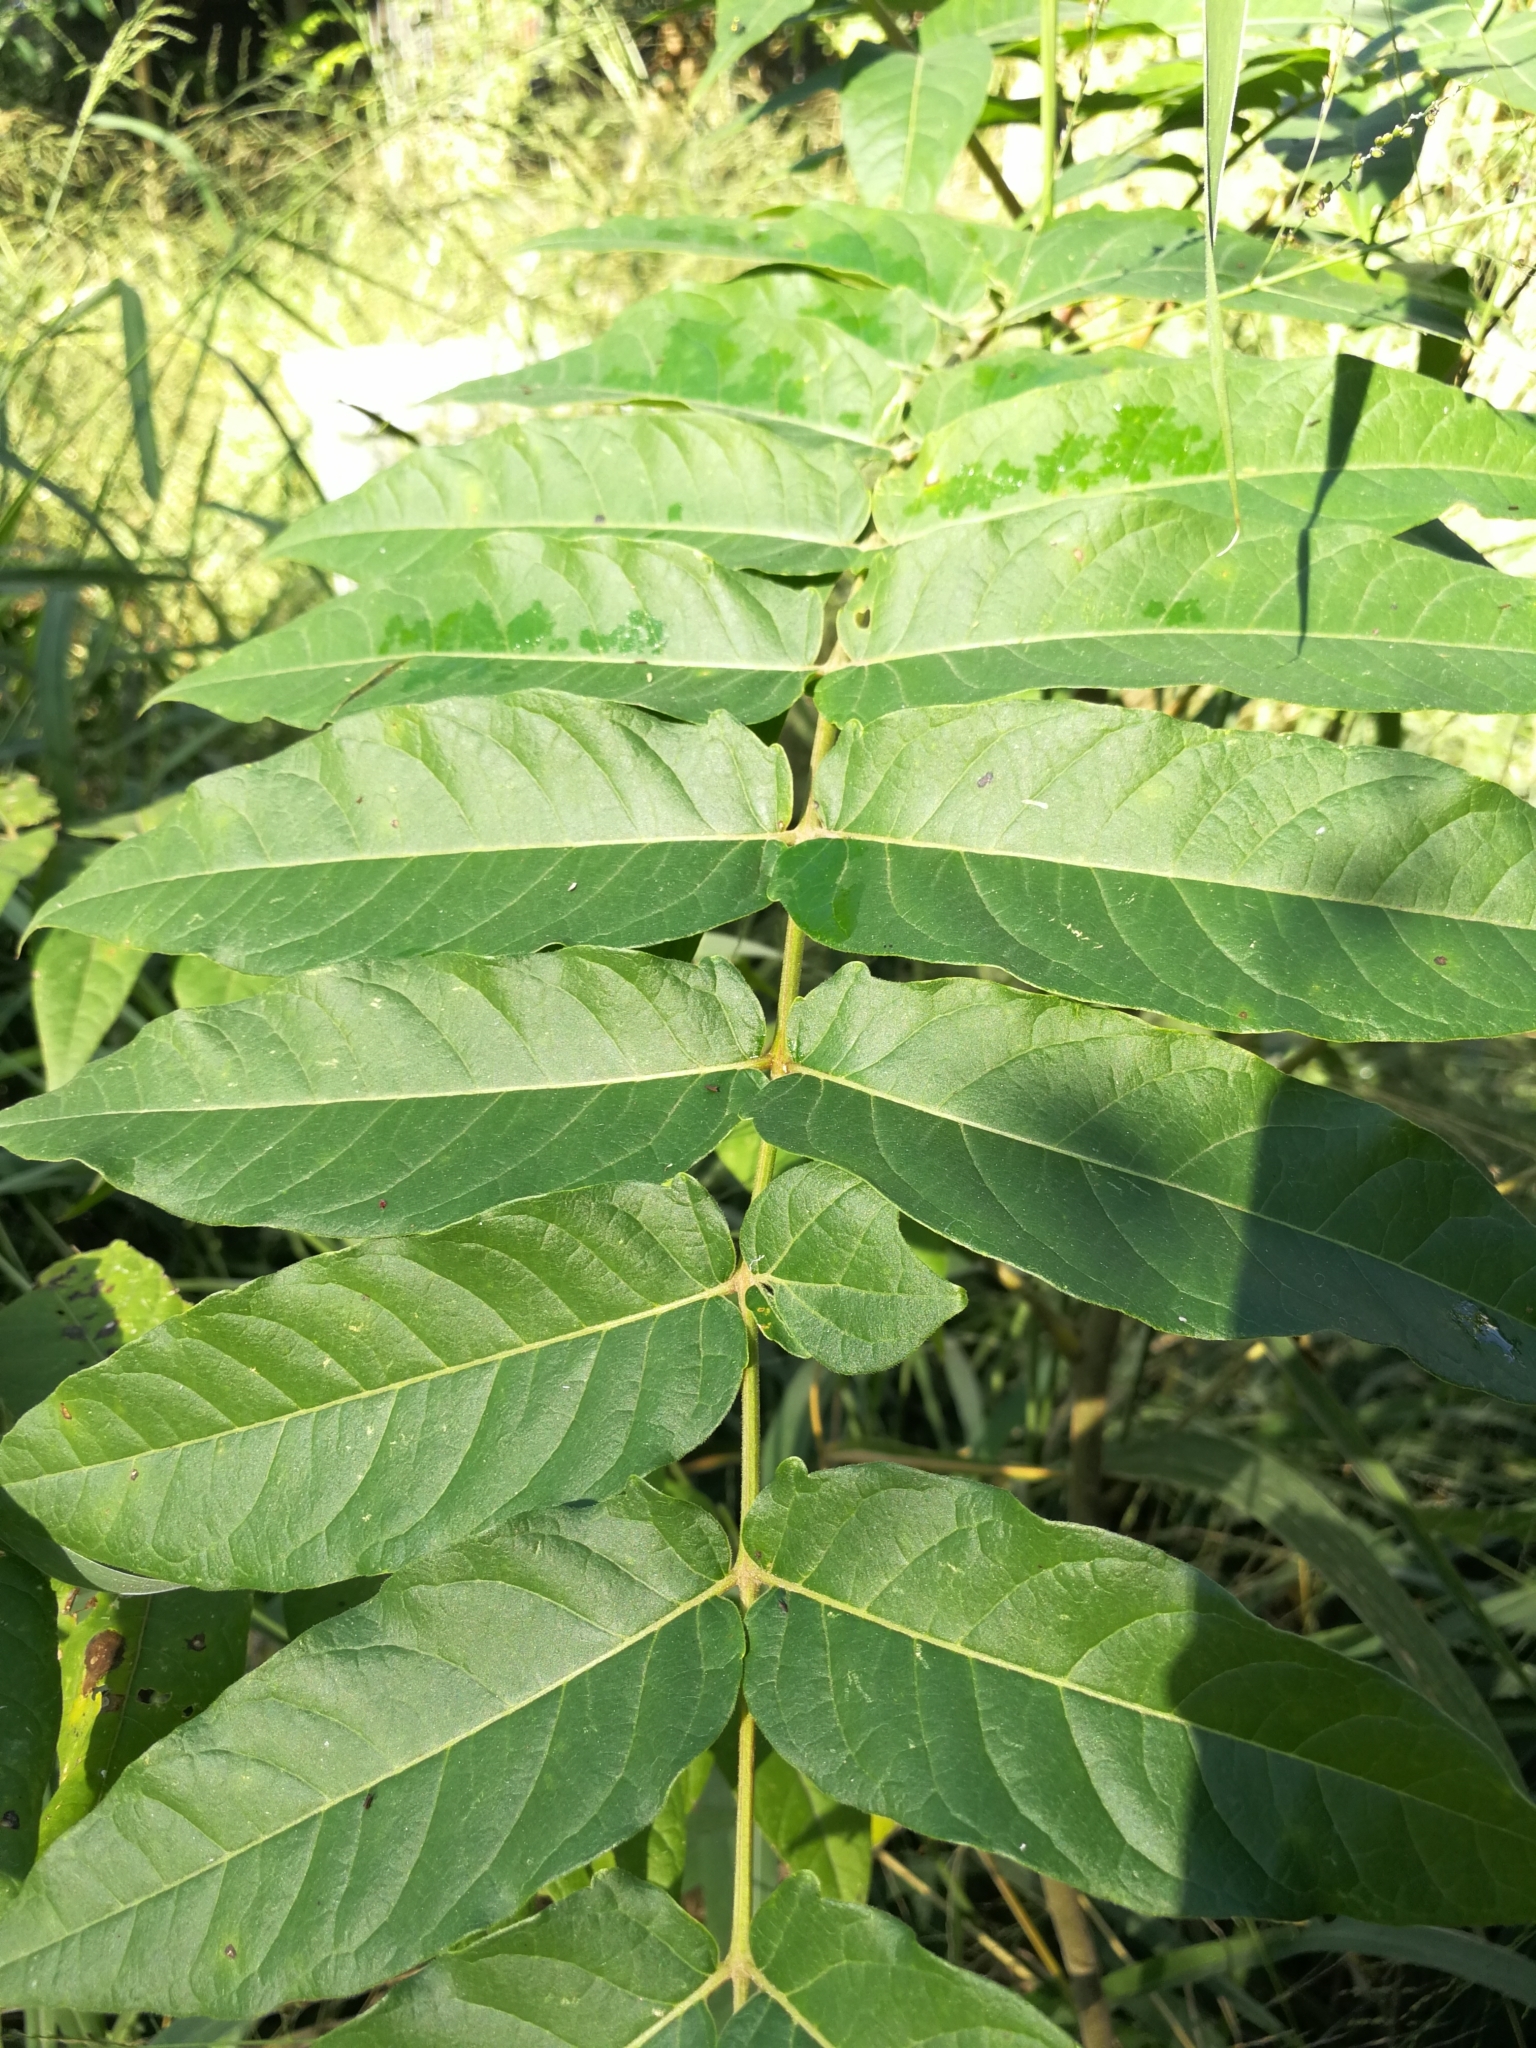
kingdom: Plantae
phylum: Tracheophyta
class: Magnoliopsida
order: Sapindales
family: Simaroubaceae
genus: Ailanthus
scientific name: Ailanthus altissima
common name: Tree-of-heaven
